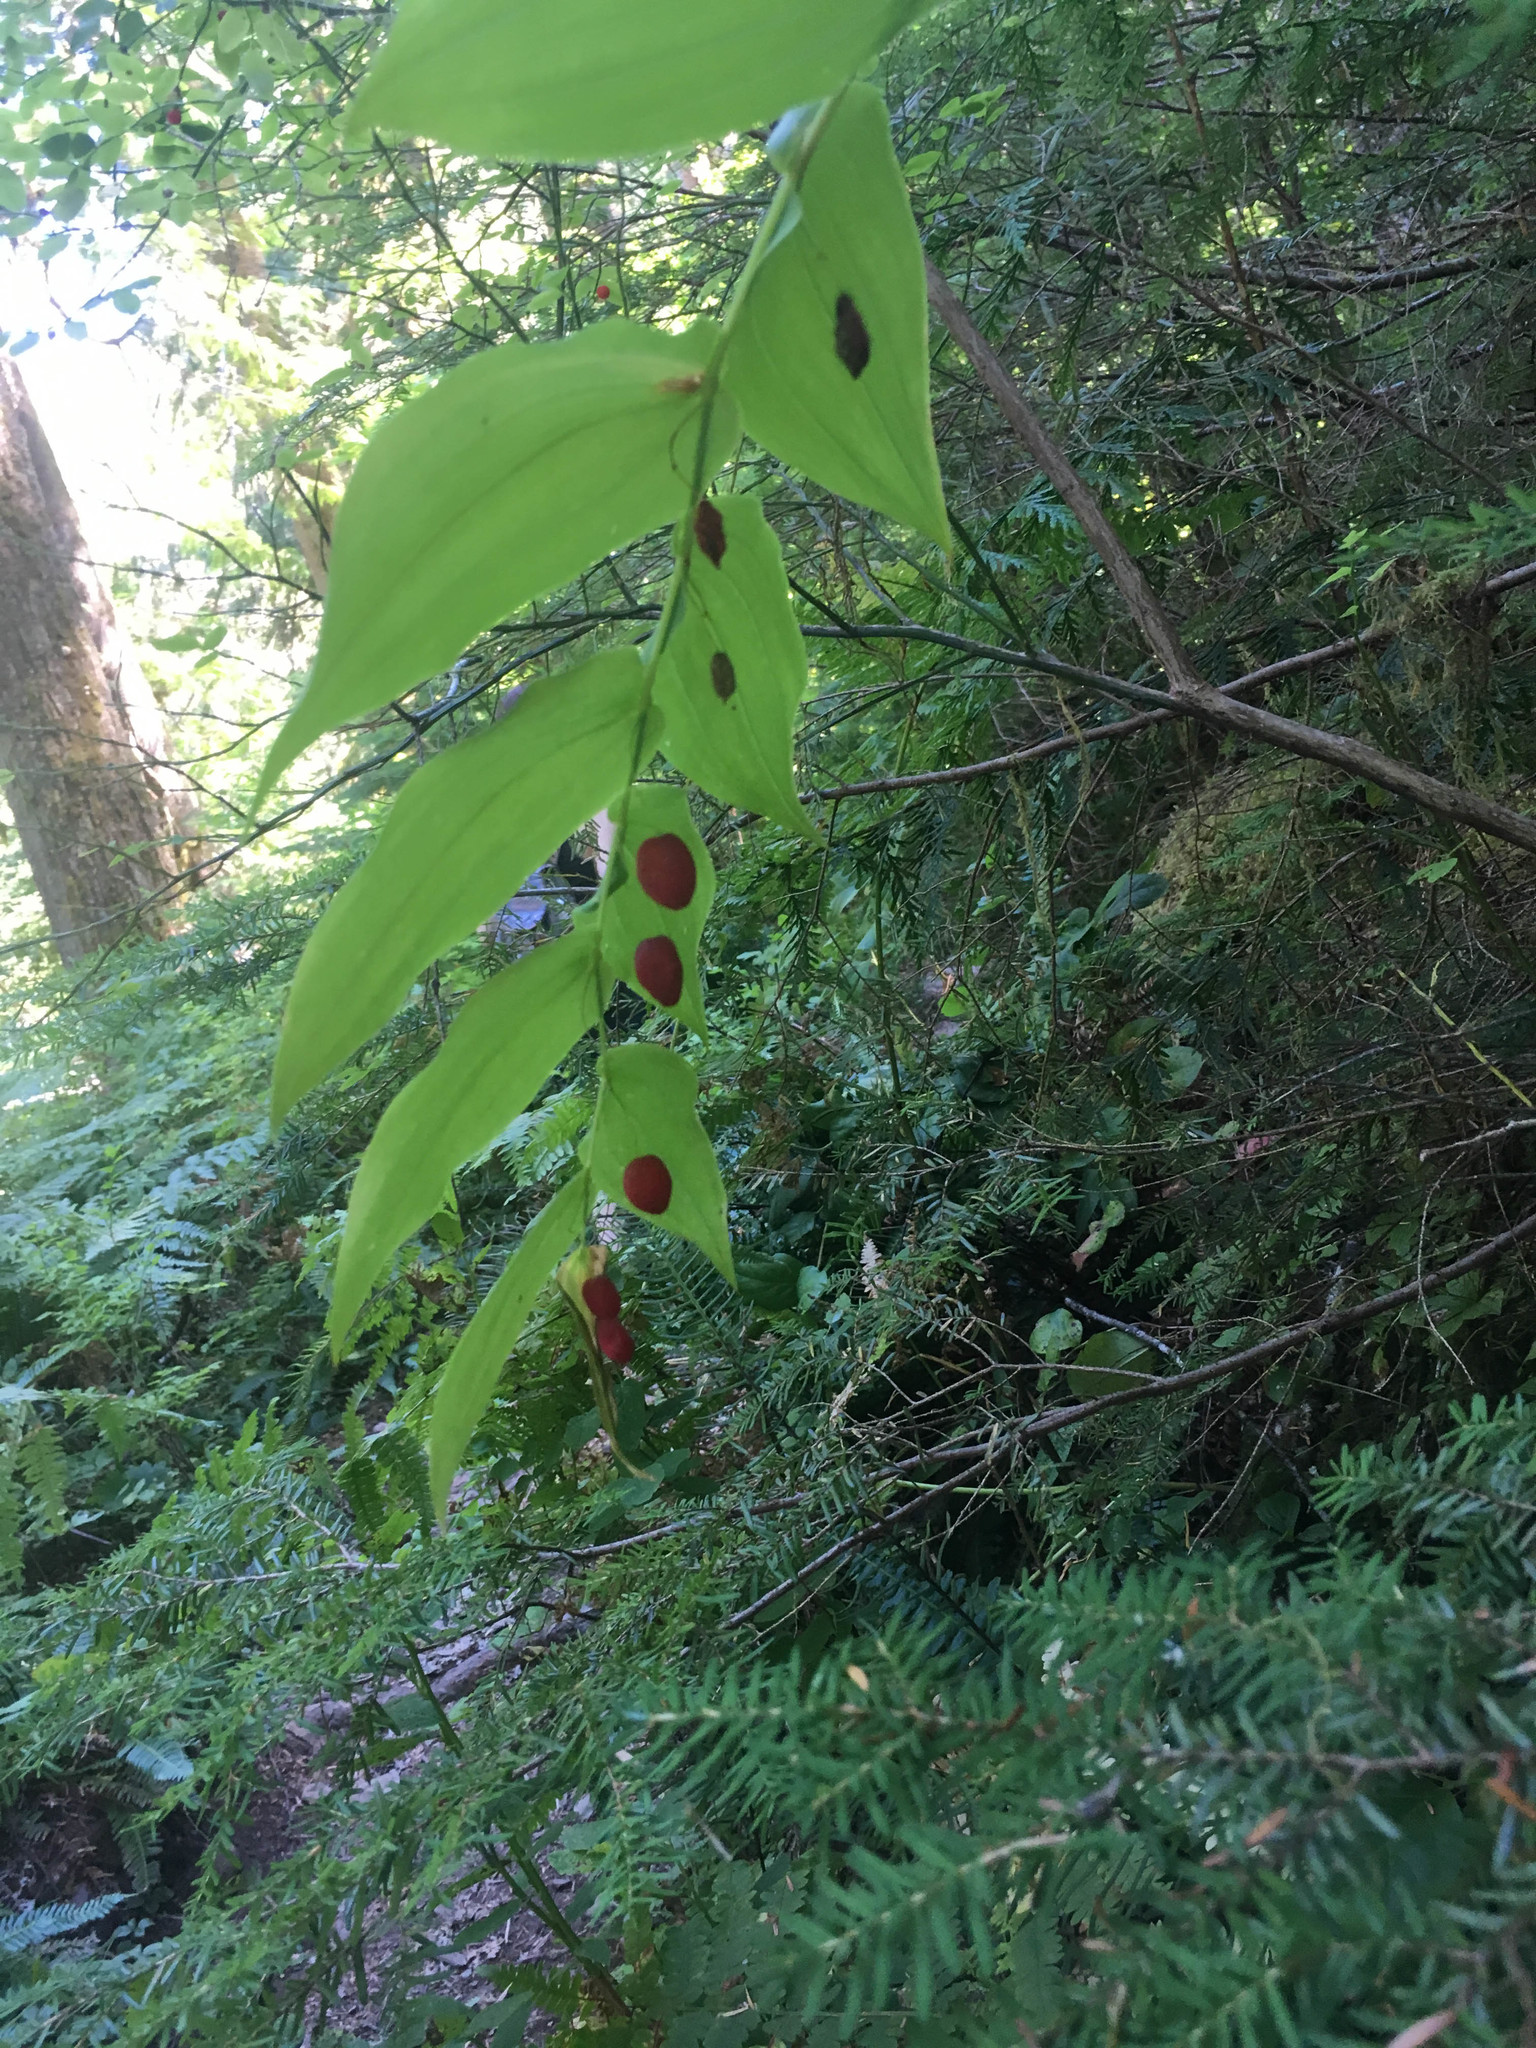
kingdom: Plantae
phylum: Tracheophyta
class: Liliopsida
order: Liliales
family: Liliaceae
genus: Streptopus
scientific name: Streptopus amplexifolius
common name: Clasp twisted stalk
